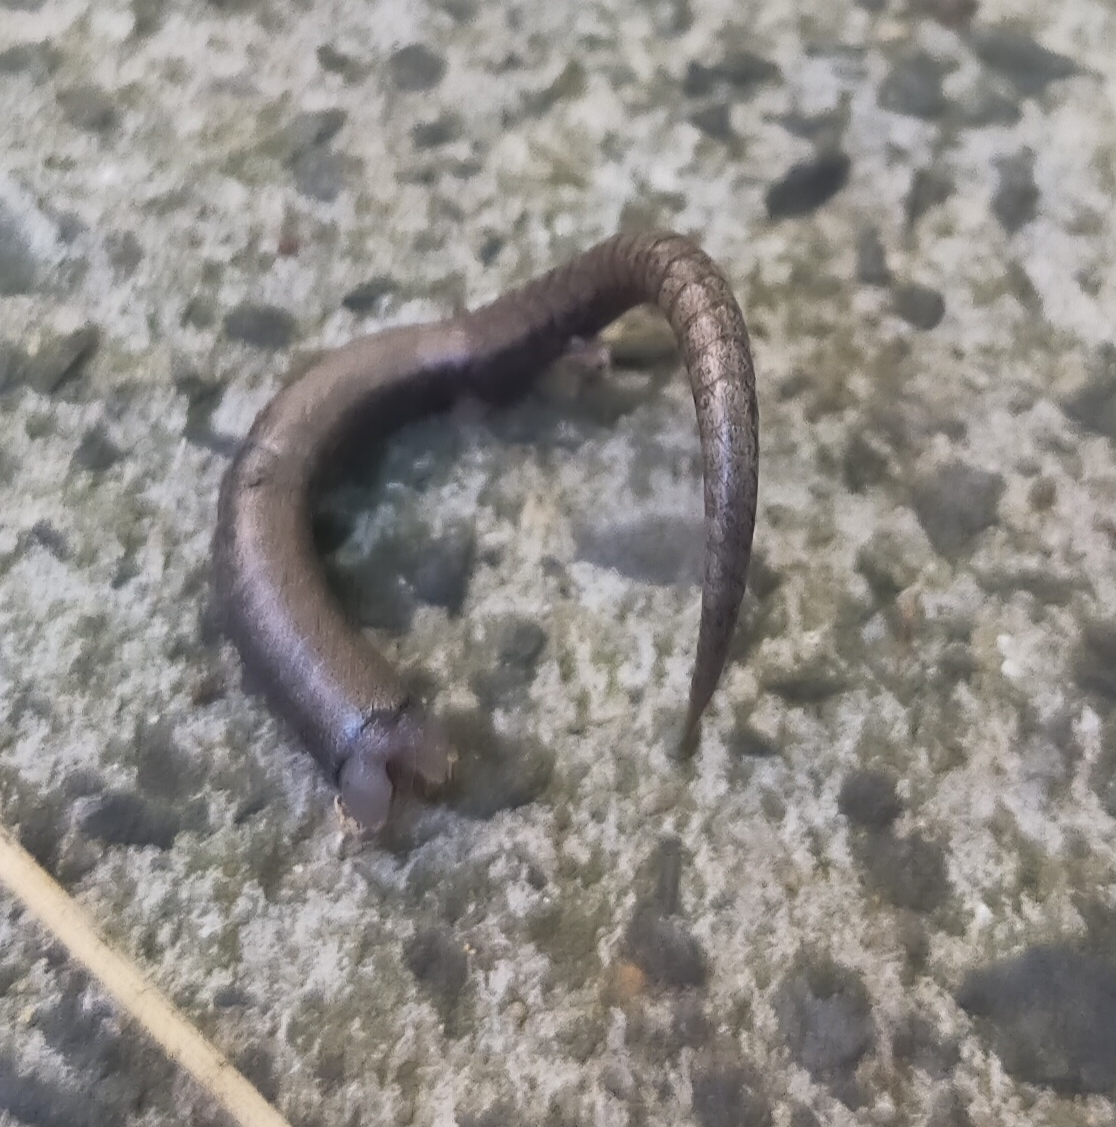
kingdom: Animalia
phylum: Chordata
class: Squamata
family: Scincidae
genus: Ablepharus
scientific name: Ablepharus kitaibelii
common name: Juniper skink
